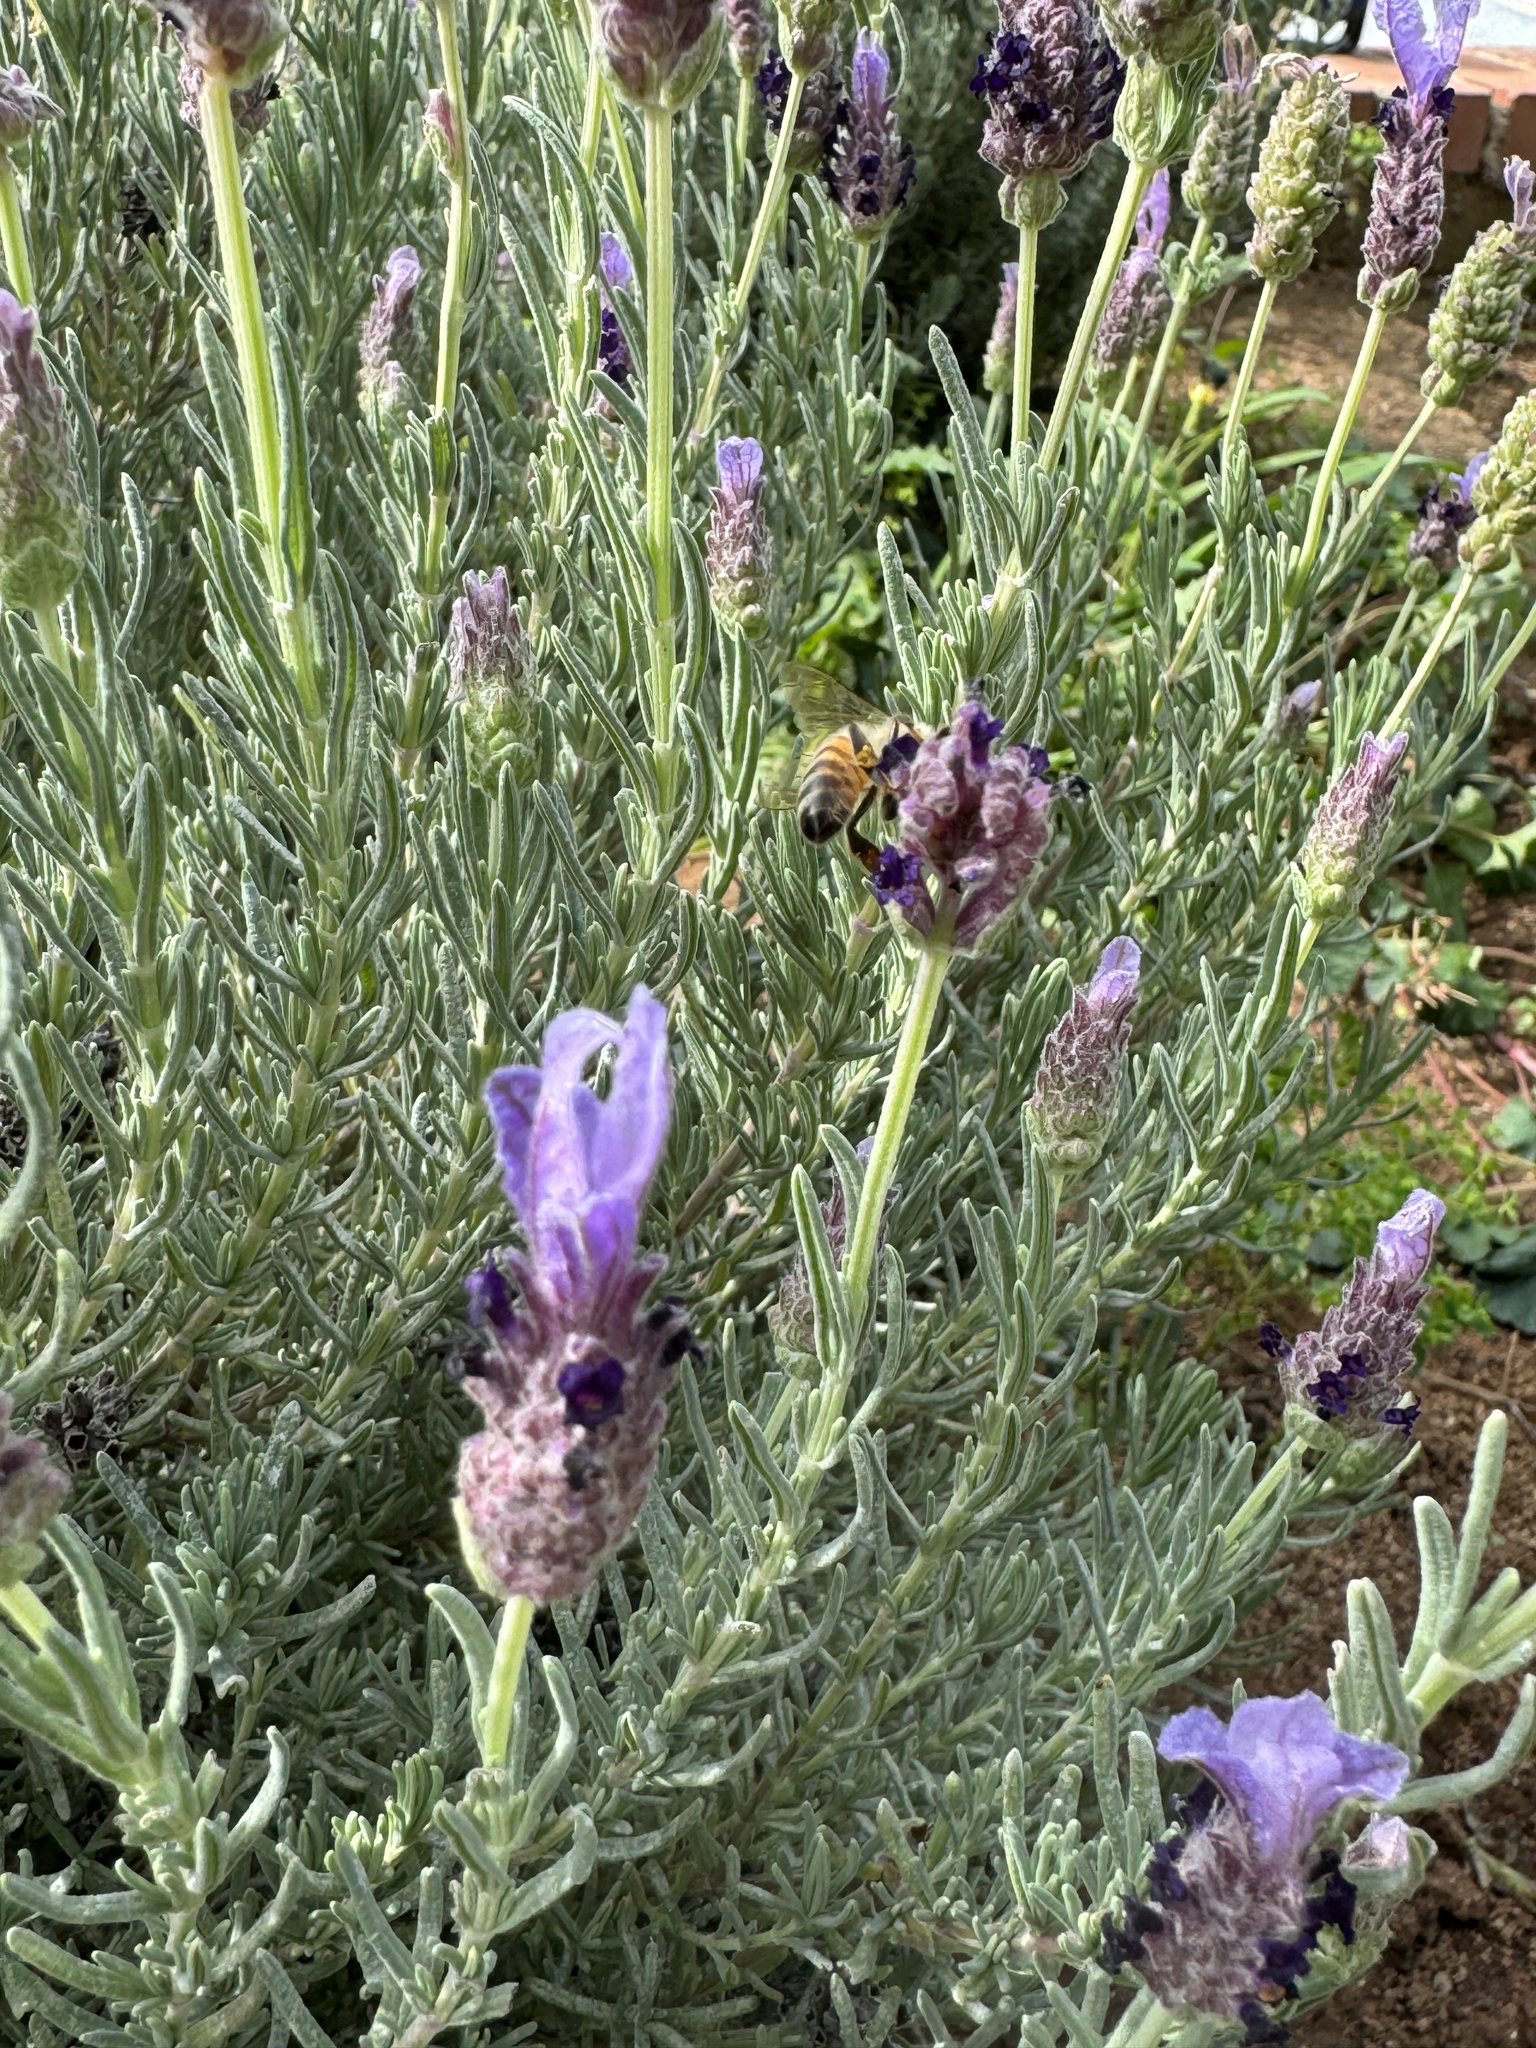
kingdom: Animalia
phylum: Arthropoda
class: Insecta
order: Hymenoptera
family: Apidae
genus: Apis
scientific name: Apis mellifera
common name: Honey bee
